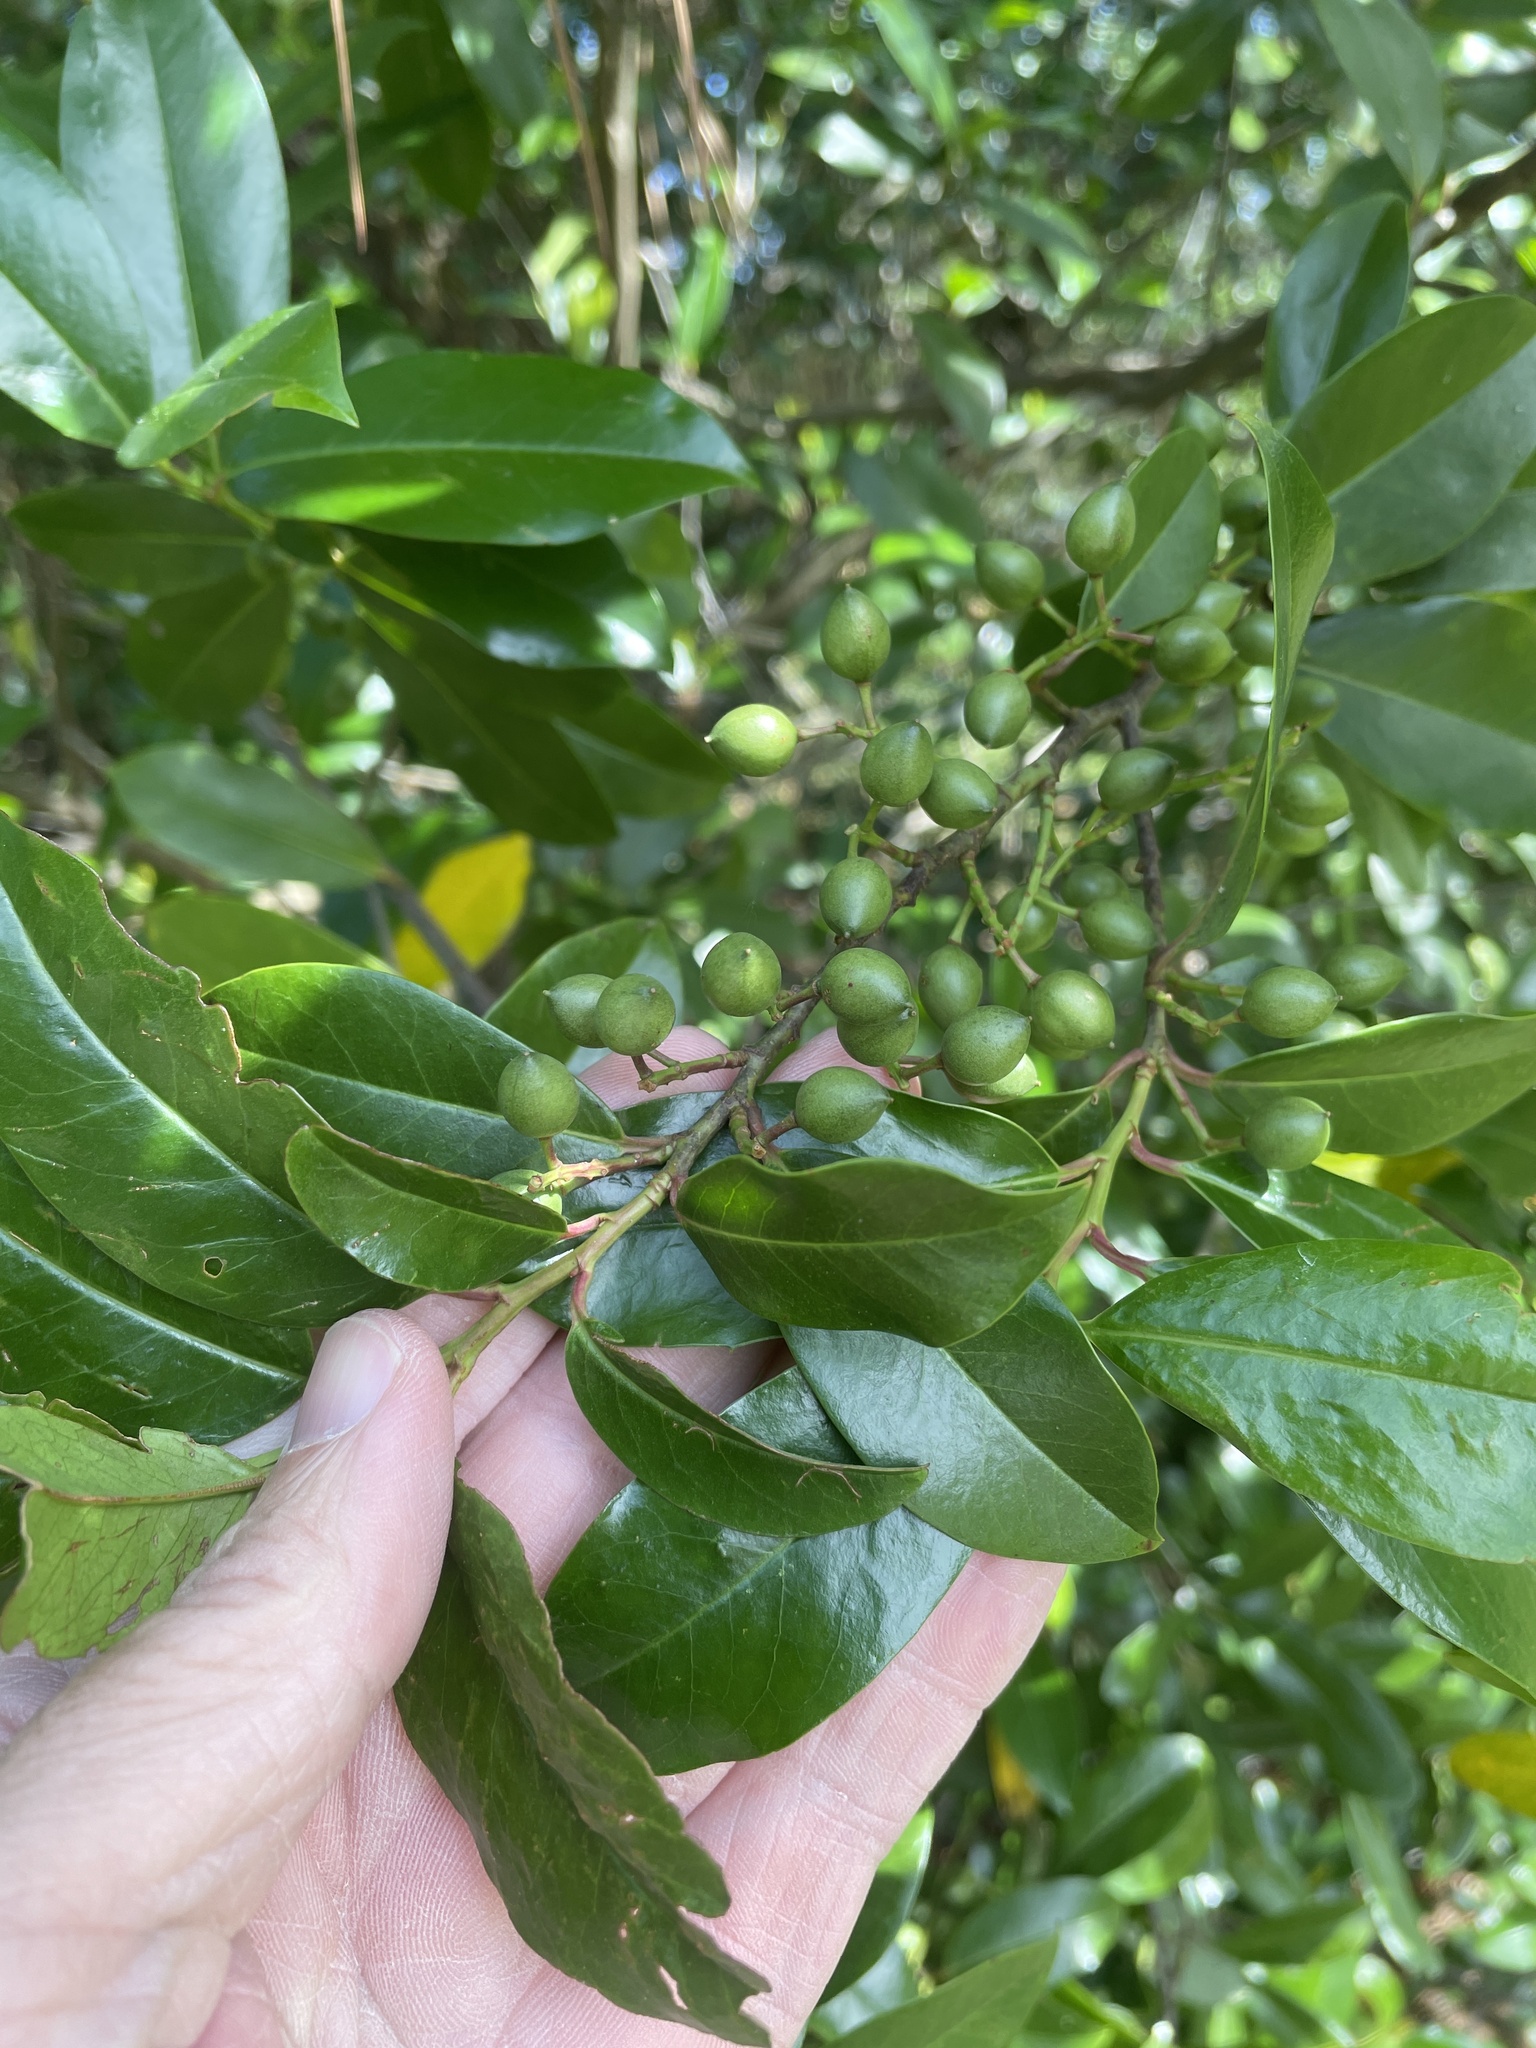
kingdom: Plantae
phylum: Tracheophyta
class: Magnoliopsida
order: Rosales
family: Rosaceae
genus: Prunus
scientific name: Prunus caroliniana
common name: Carolina laurel cherry
